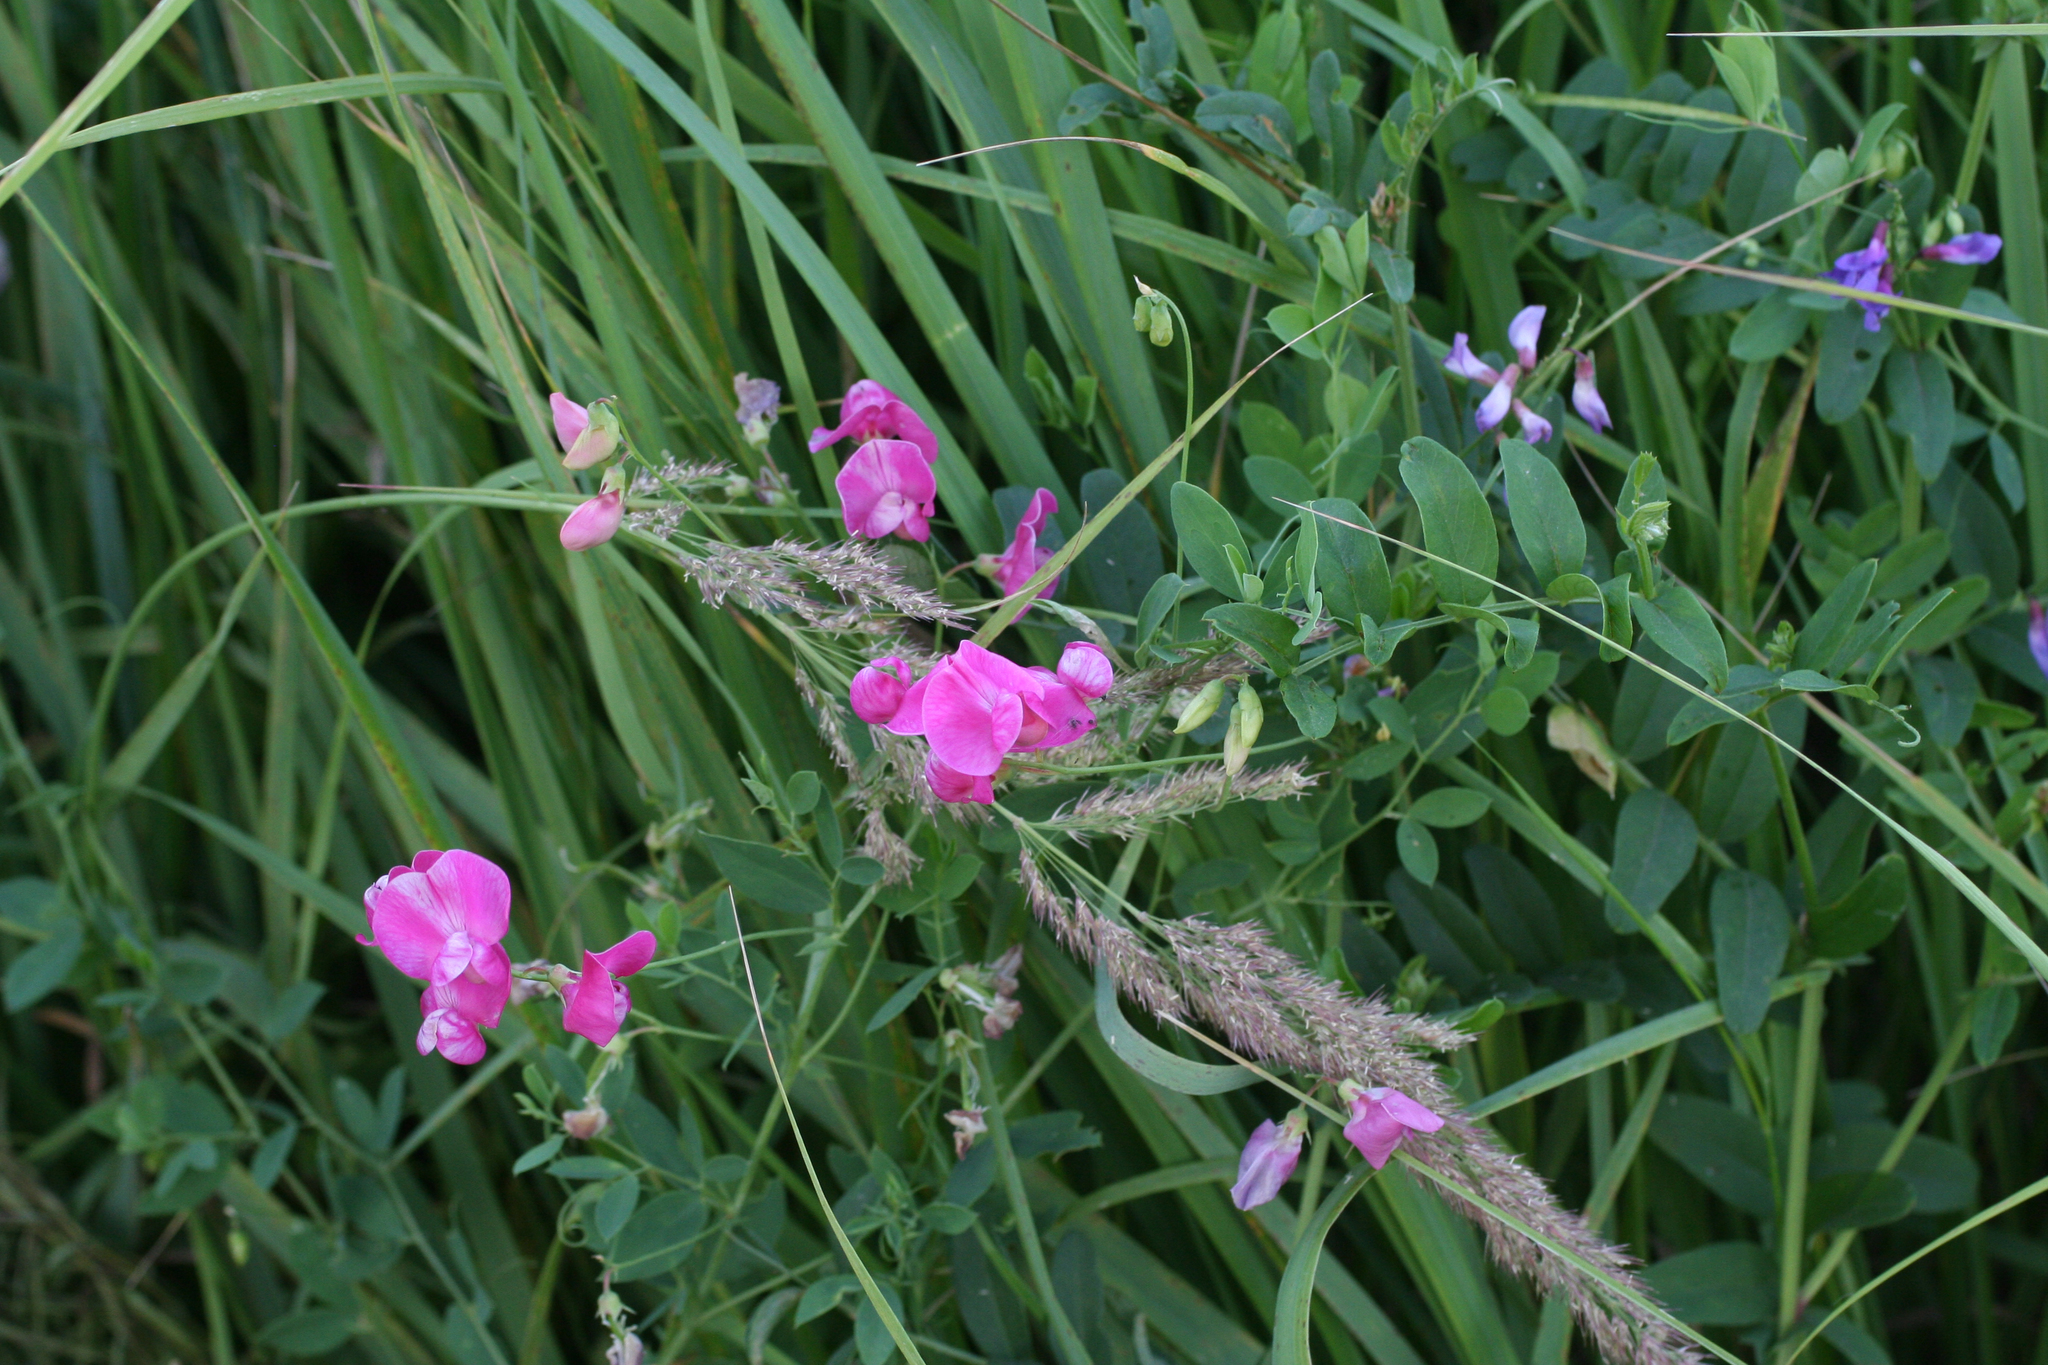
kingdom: Plantae
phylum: Tracheophyta
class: Magnoliopsida
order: Fabales
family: Fabaceae
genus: Lathyrus
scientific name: Lathyrus tuberosus
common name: Tuberous pea
